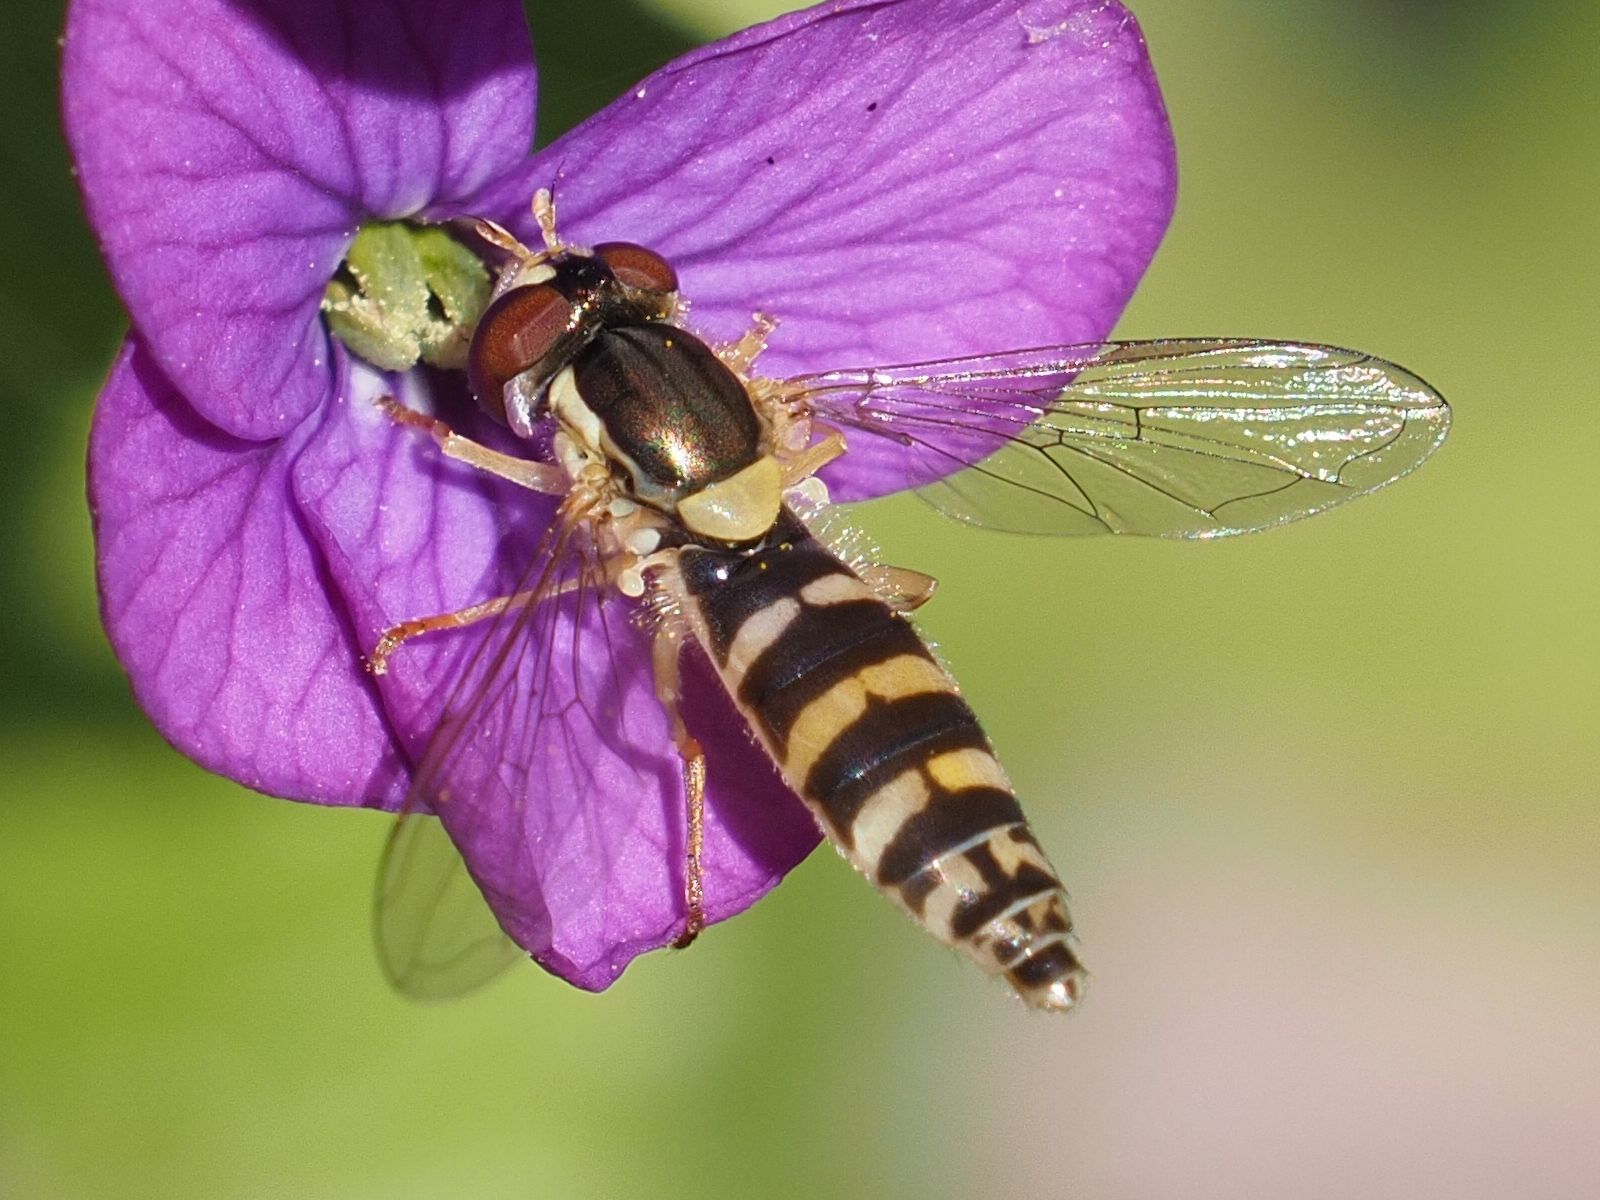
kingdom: Animalia
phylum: Arthropoda
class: Insecta
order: Diptera
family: Syrphidae
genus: Sphaerophoria
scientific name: Sphaerophoria
